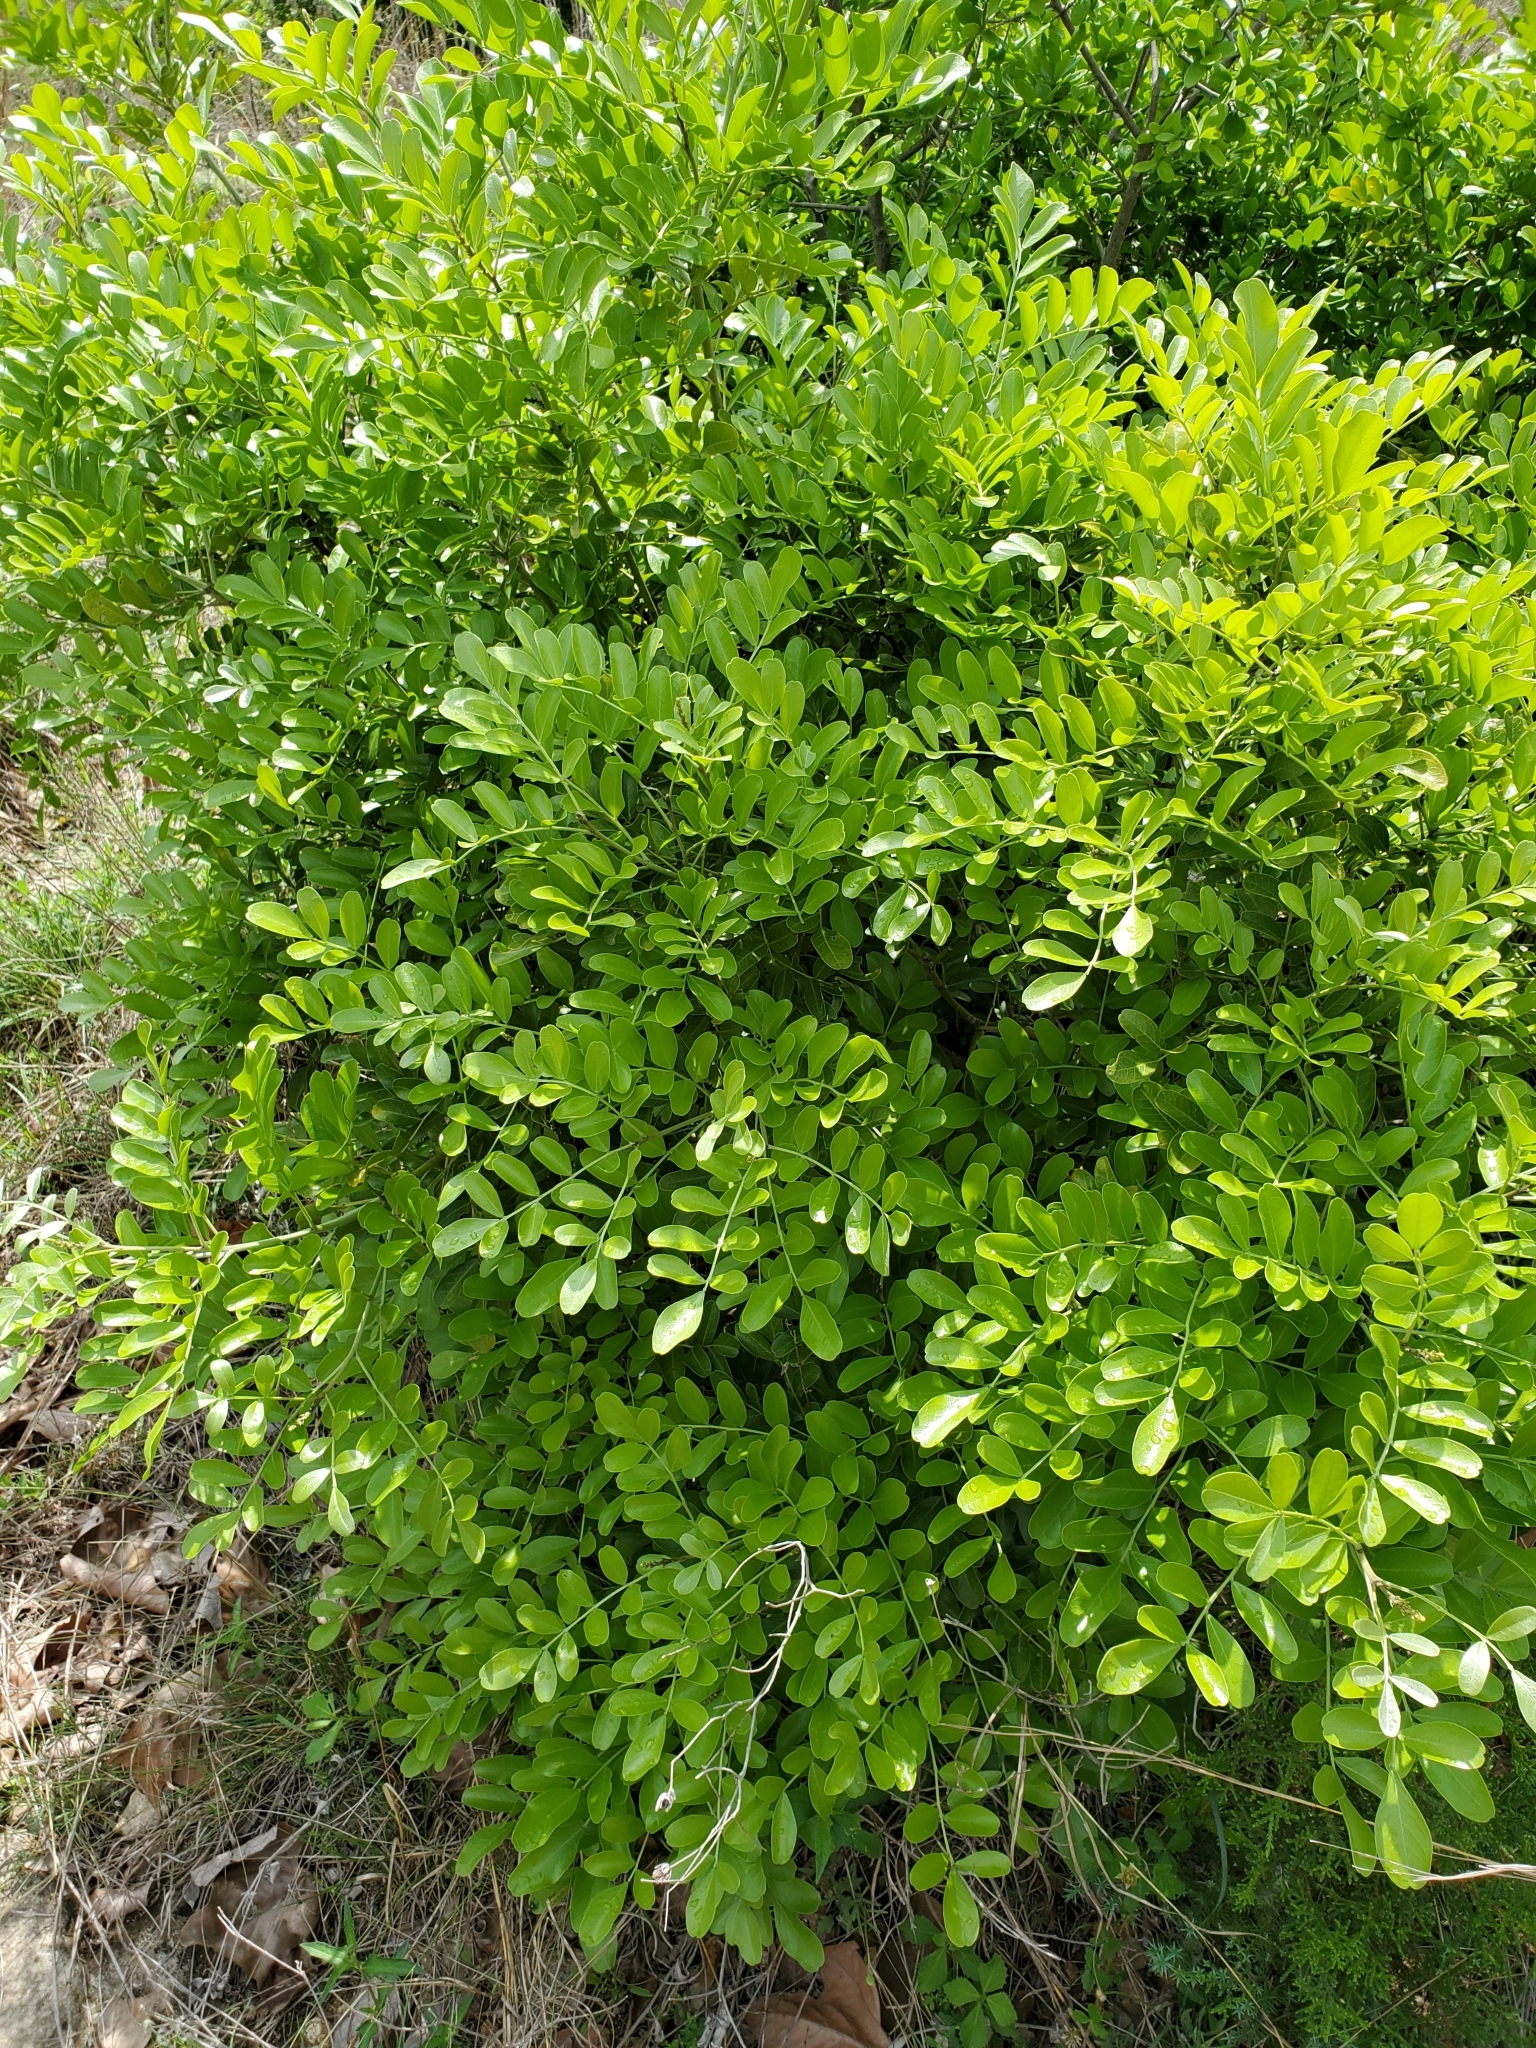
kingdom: Plantae
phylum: Tracheophyta
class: Magnoliopsida
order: Fabales
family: Fabaceae
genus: Dermatophyllum
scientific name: Dermatophyllum secundiflorum
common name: Texas-mountain-laurel
